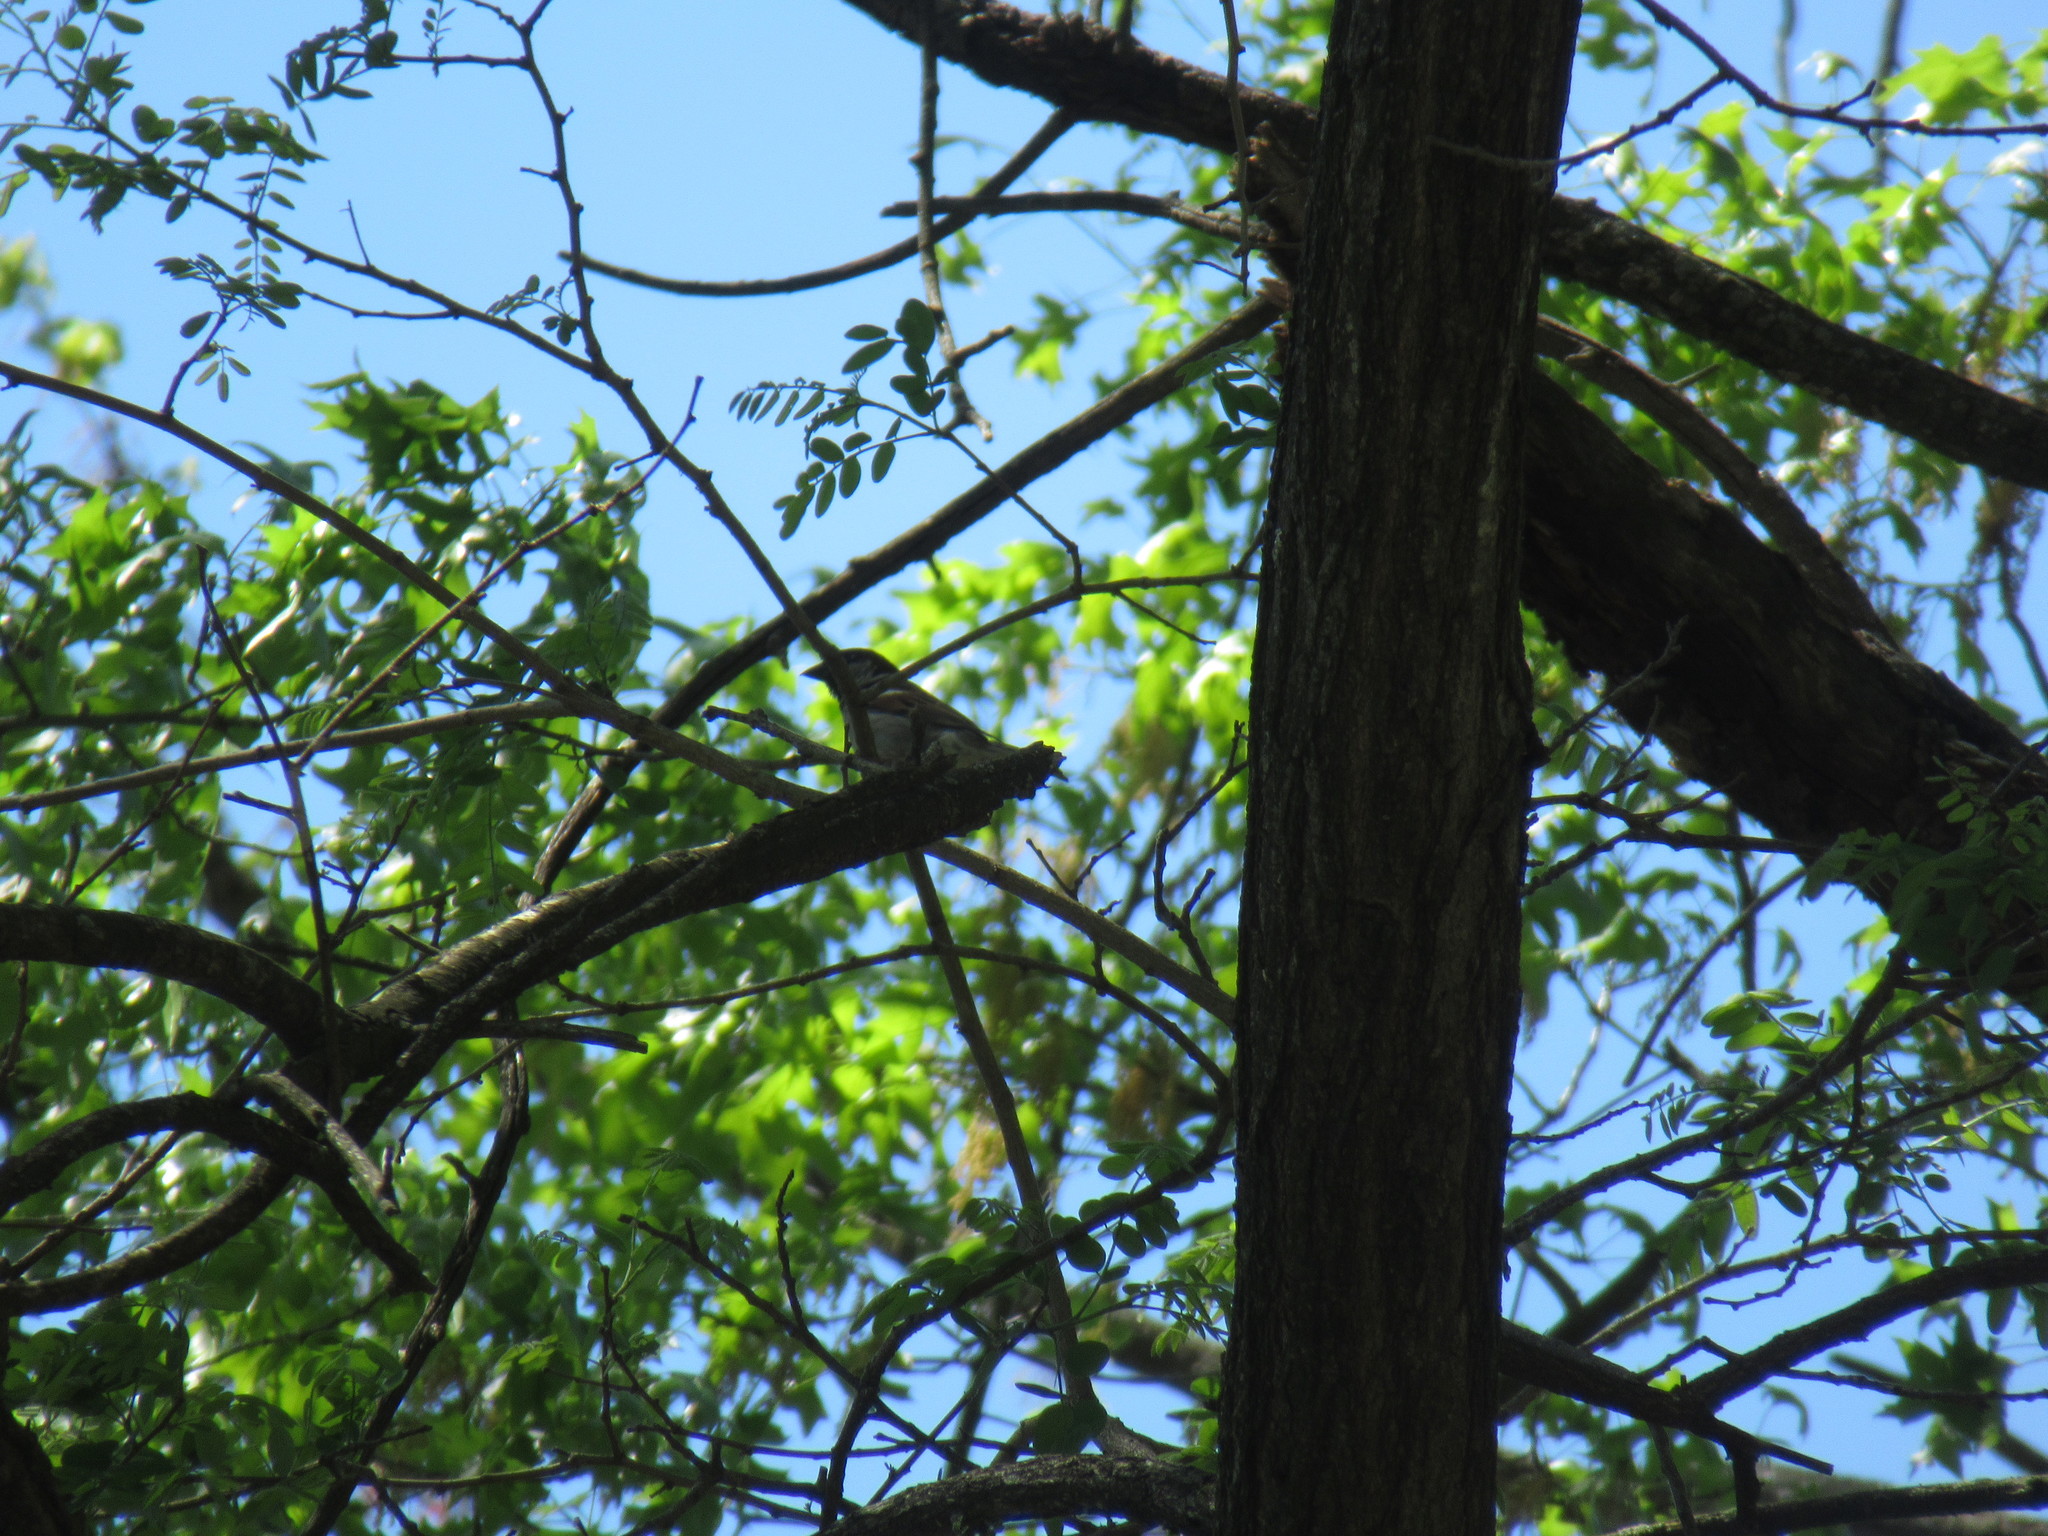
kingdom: Animalia
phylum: Chordata
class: Aves
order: Passeriformes
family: Passeridae
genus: Passer
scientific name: Passer domesticus
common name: House sparrow
